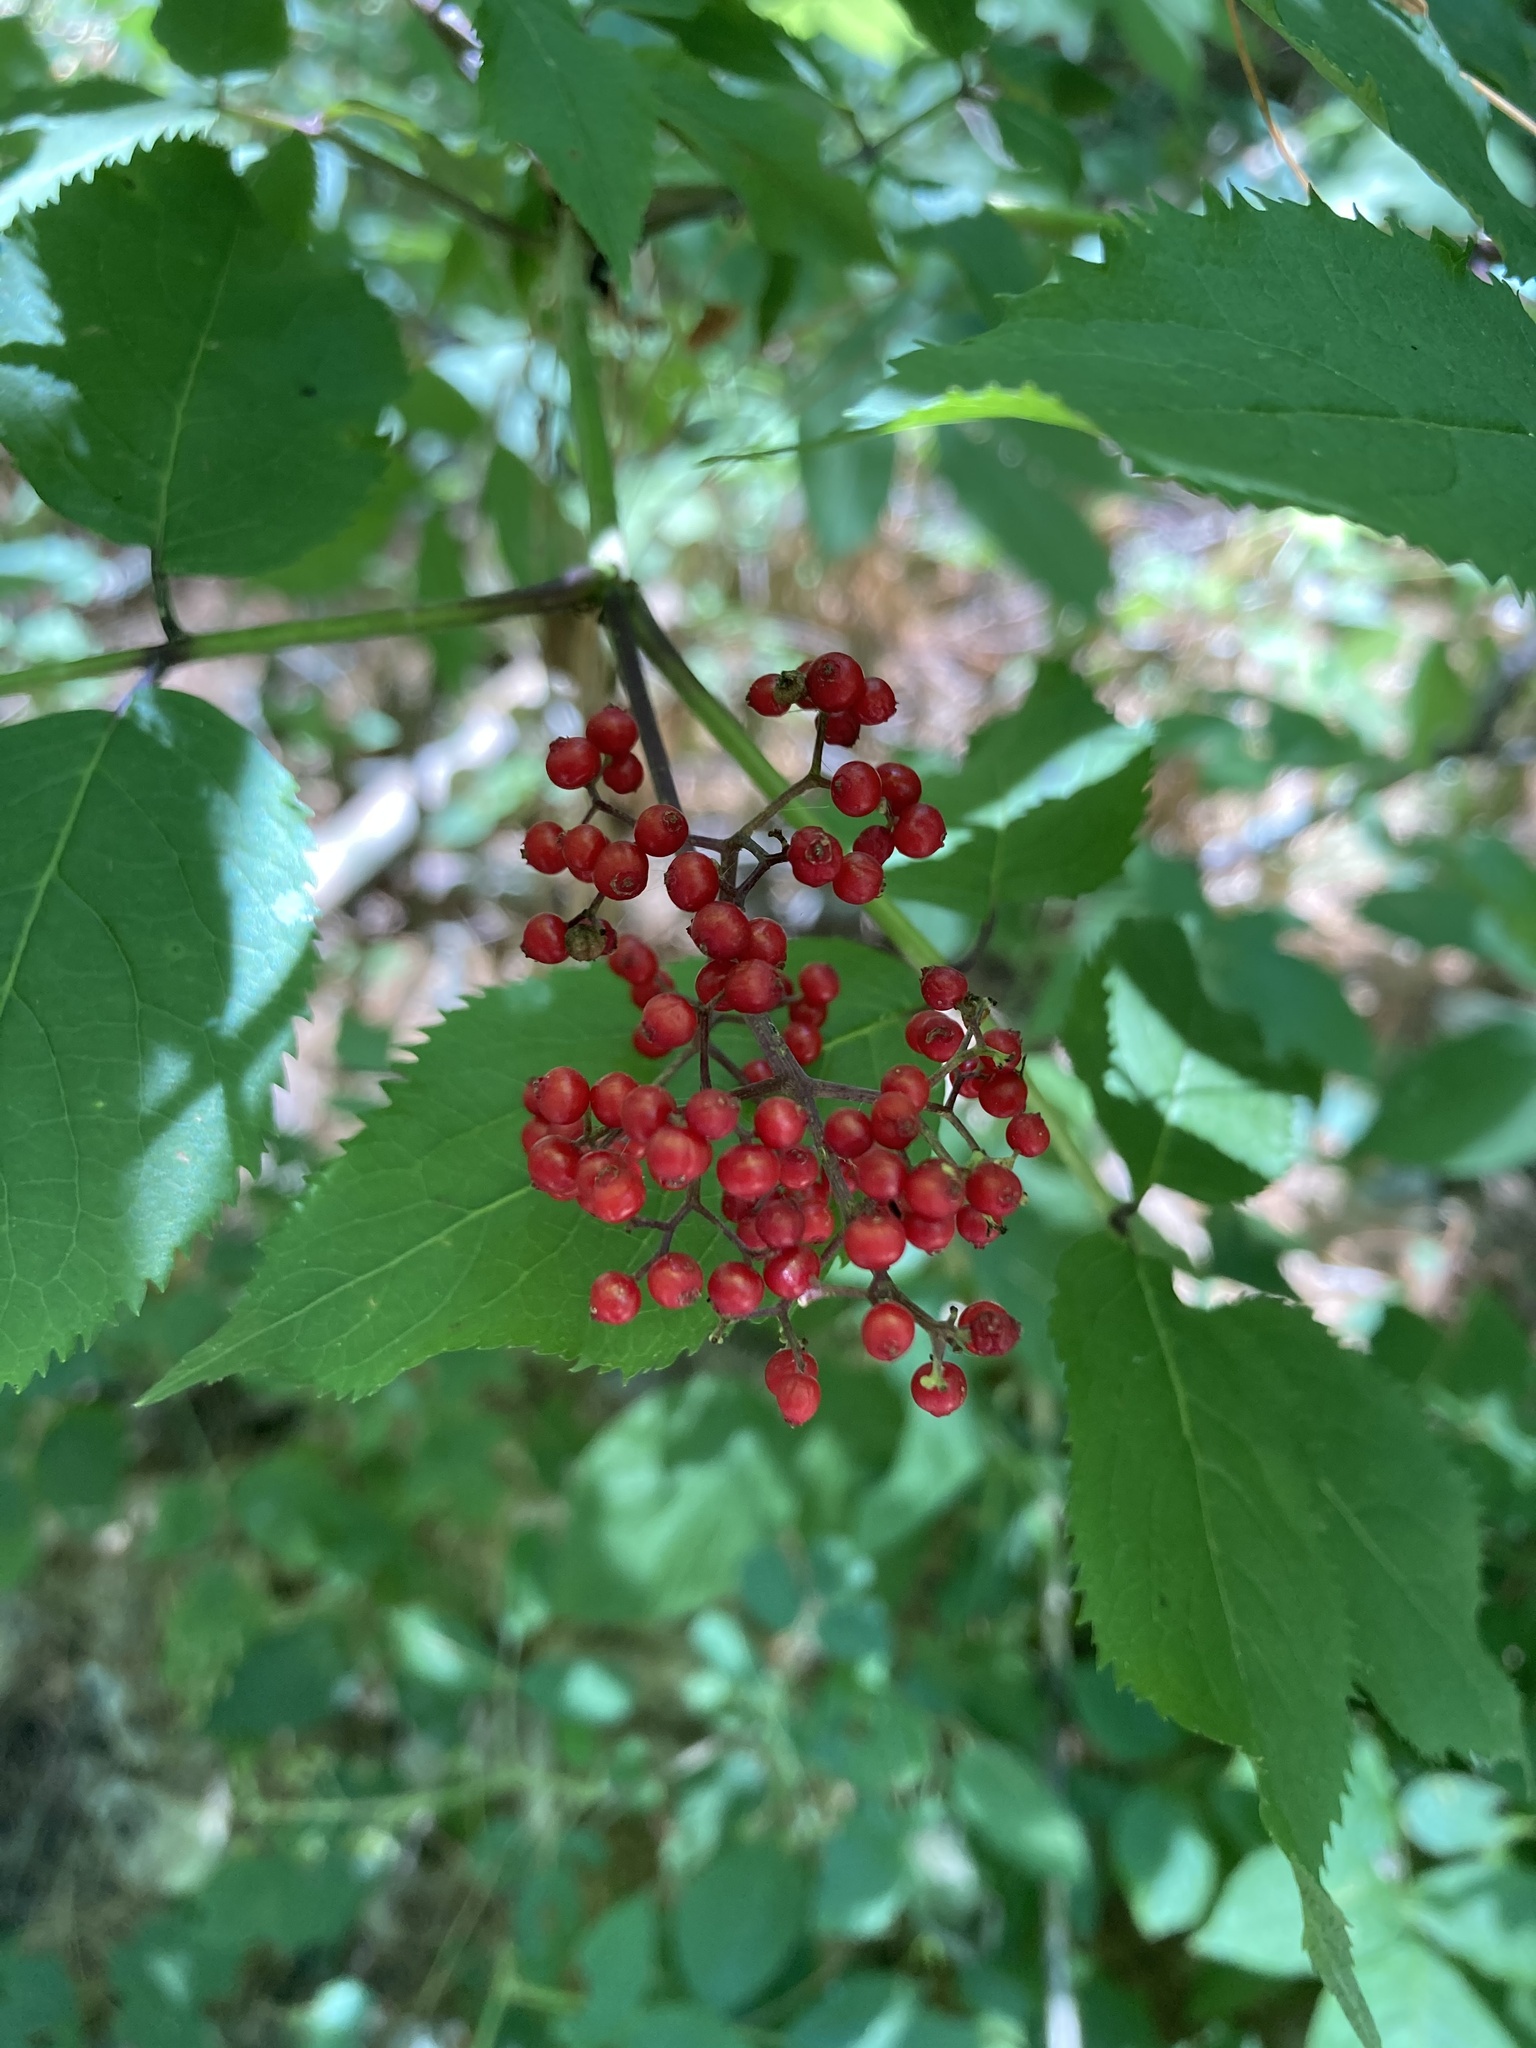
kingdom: Plantae
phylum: Tracheophyta
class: Magnoliopsida
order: Dipsacales
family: Viburnaceae
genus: Sambucus
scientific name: Sambucus racemosa
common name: Red-berried elder
